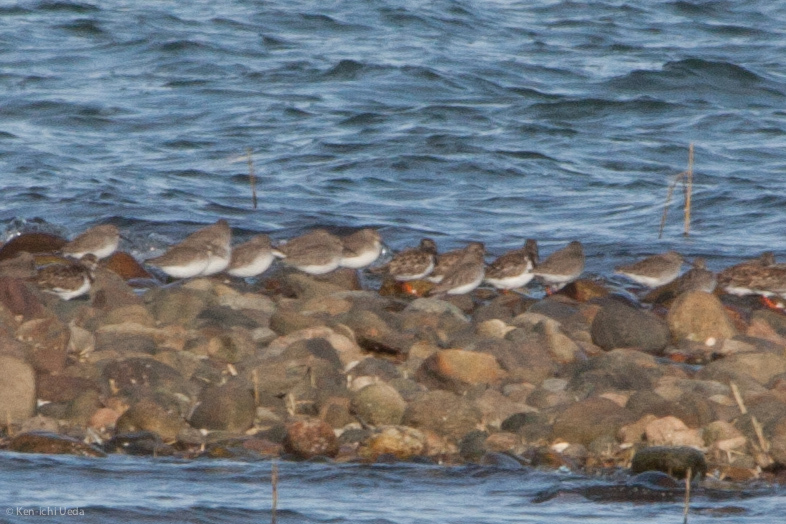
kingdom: Animalia
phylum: Chordata
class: Aves
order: Charadriiformes
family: Scolopacidae
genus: Calidris
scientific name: Calidris alpina
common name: Dunlin
